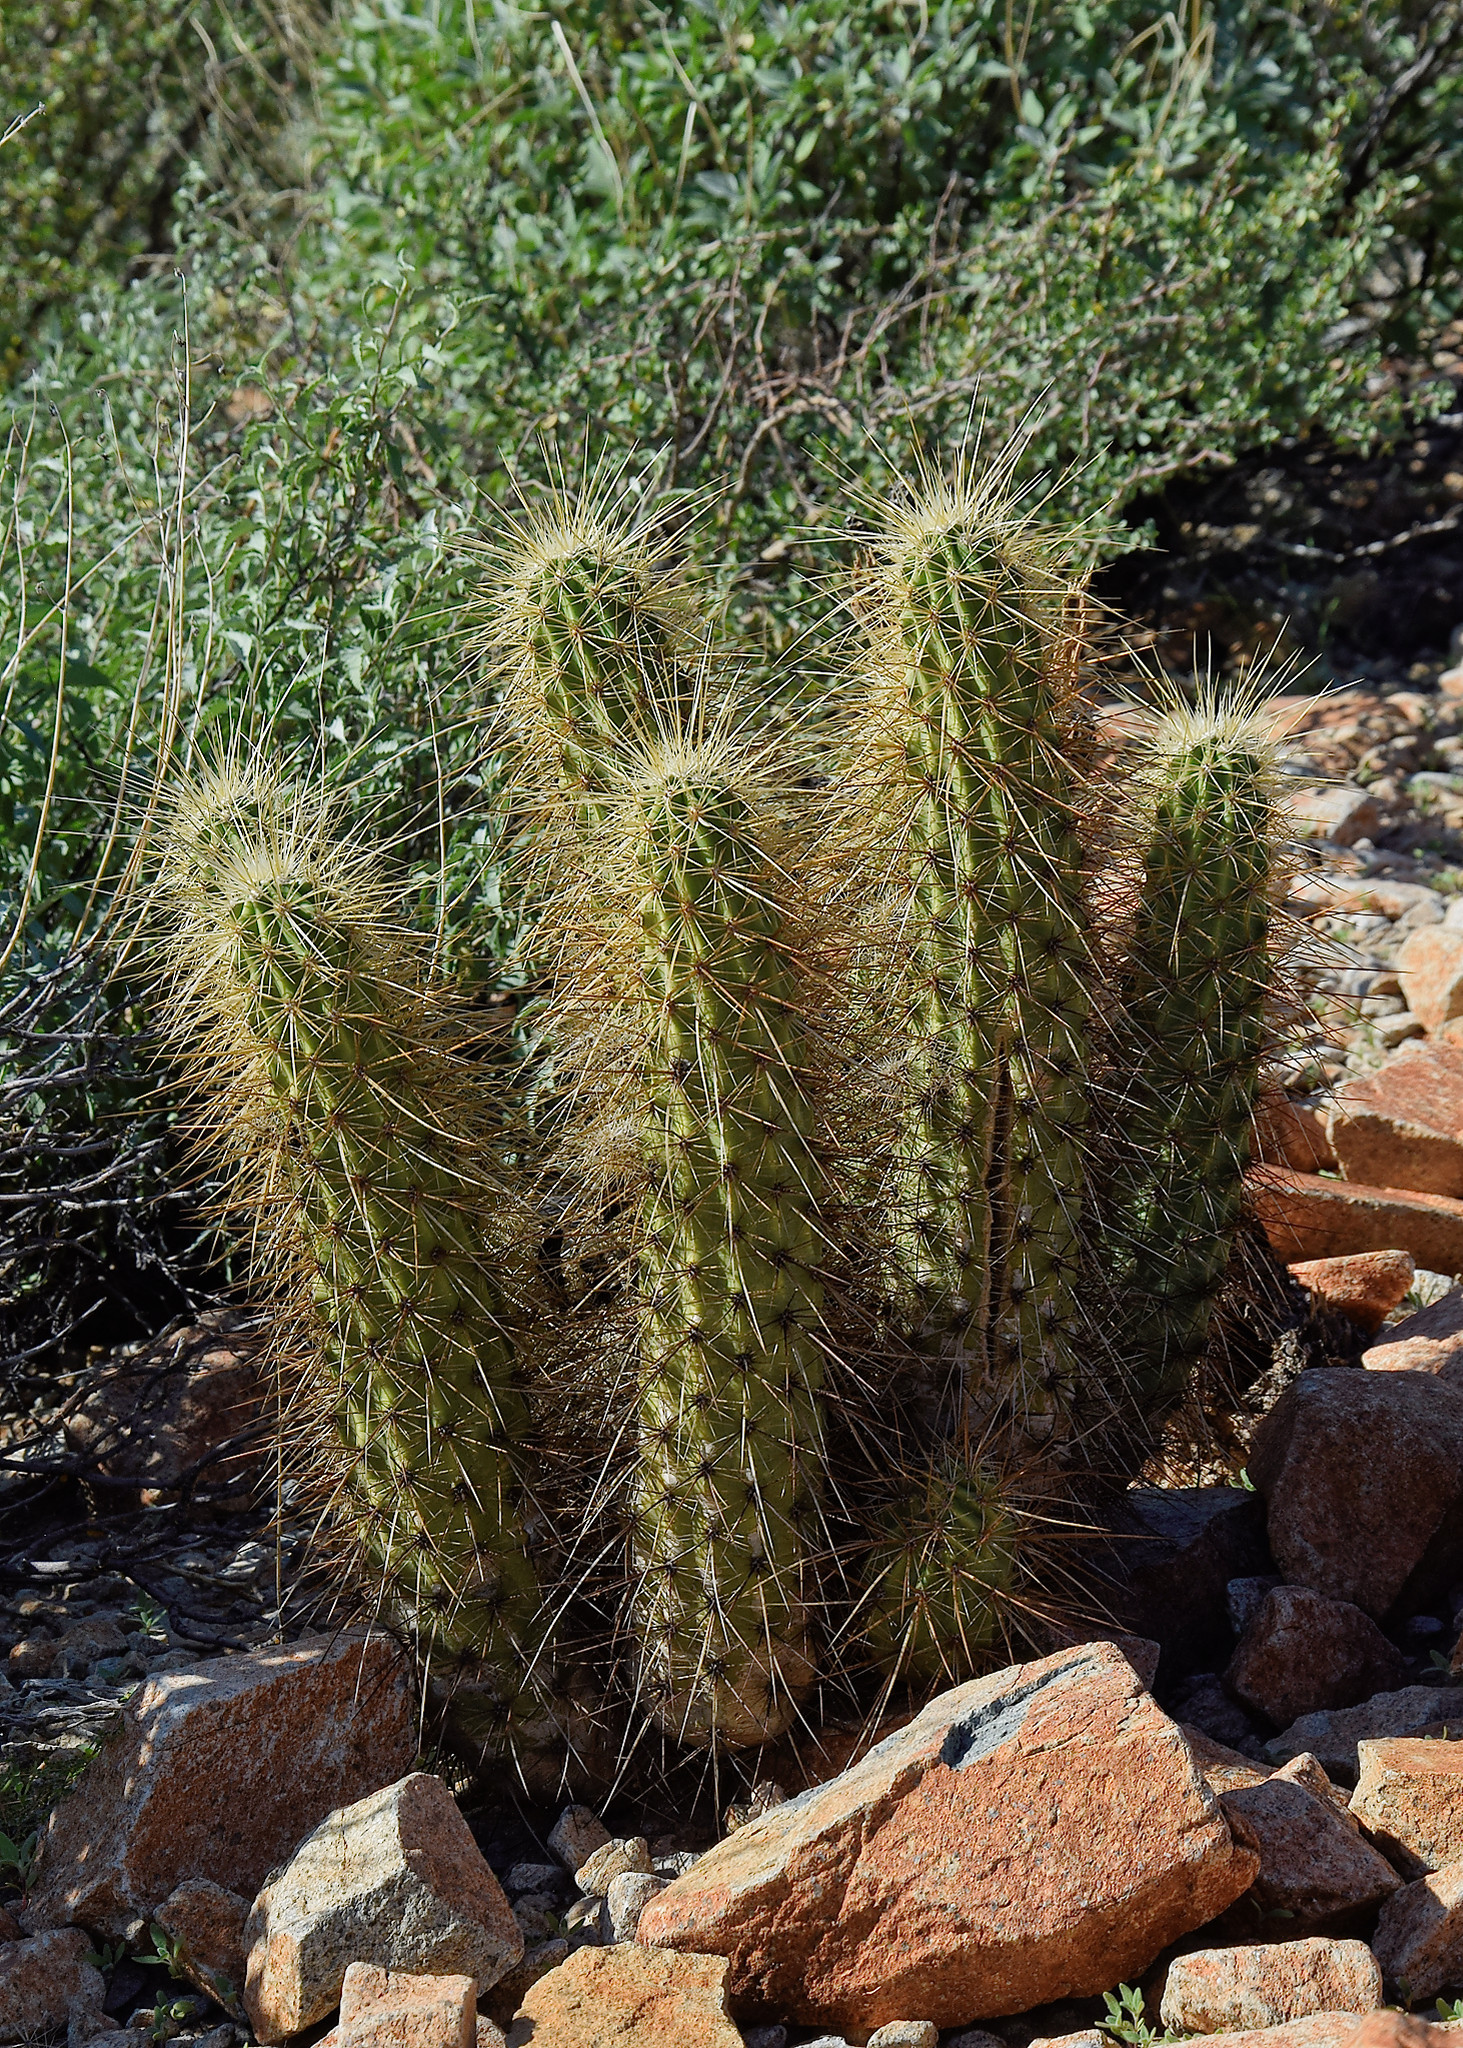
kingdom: Plantae
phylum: Tracheophyta
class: Magnoliopsida
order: Caryophyllales
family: Cactaceae
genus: Echinocereus
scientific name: Echinocereus nicholii
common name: Nichol's hedgehog cactus
